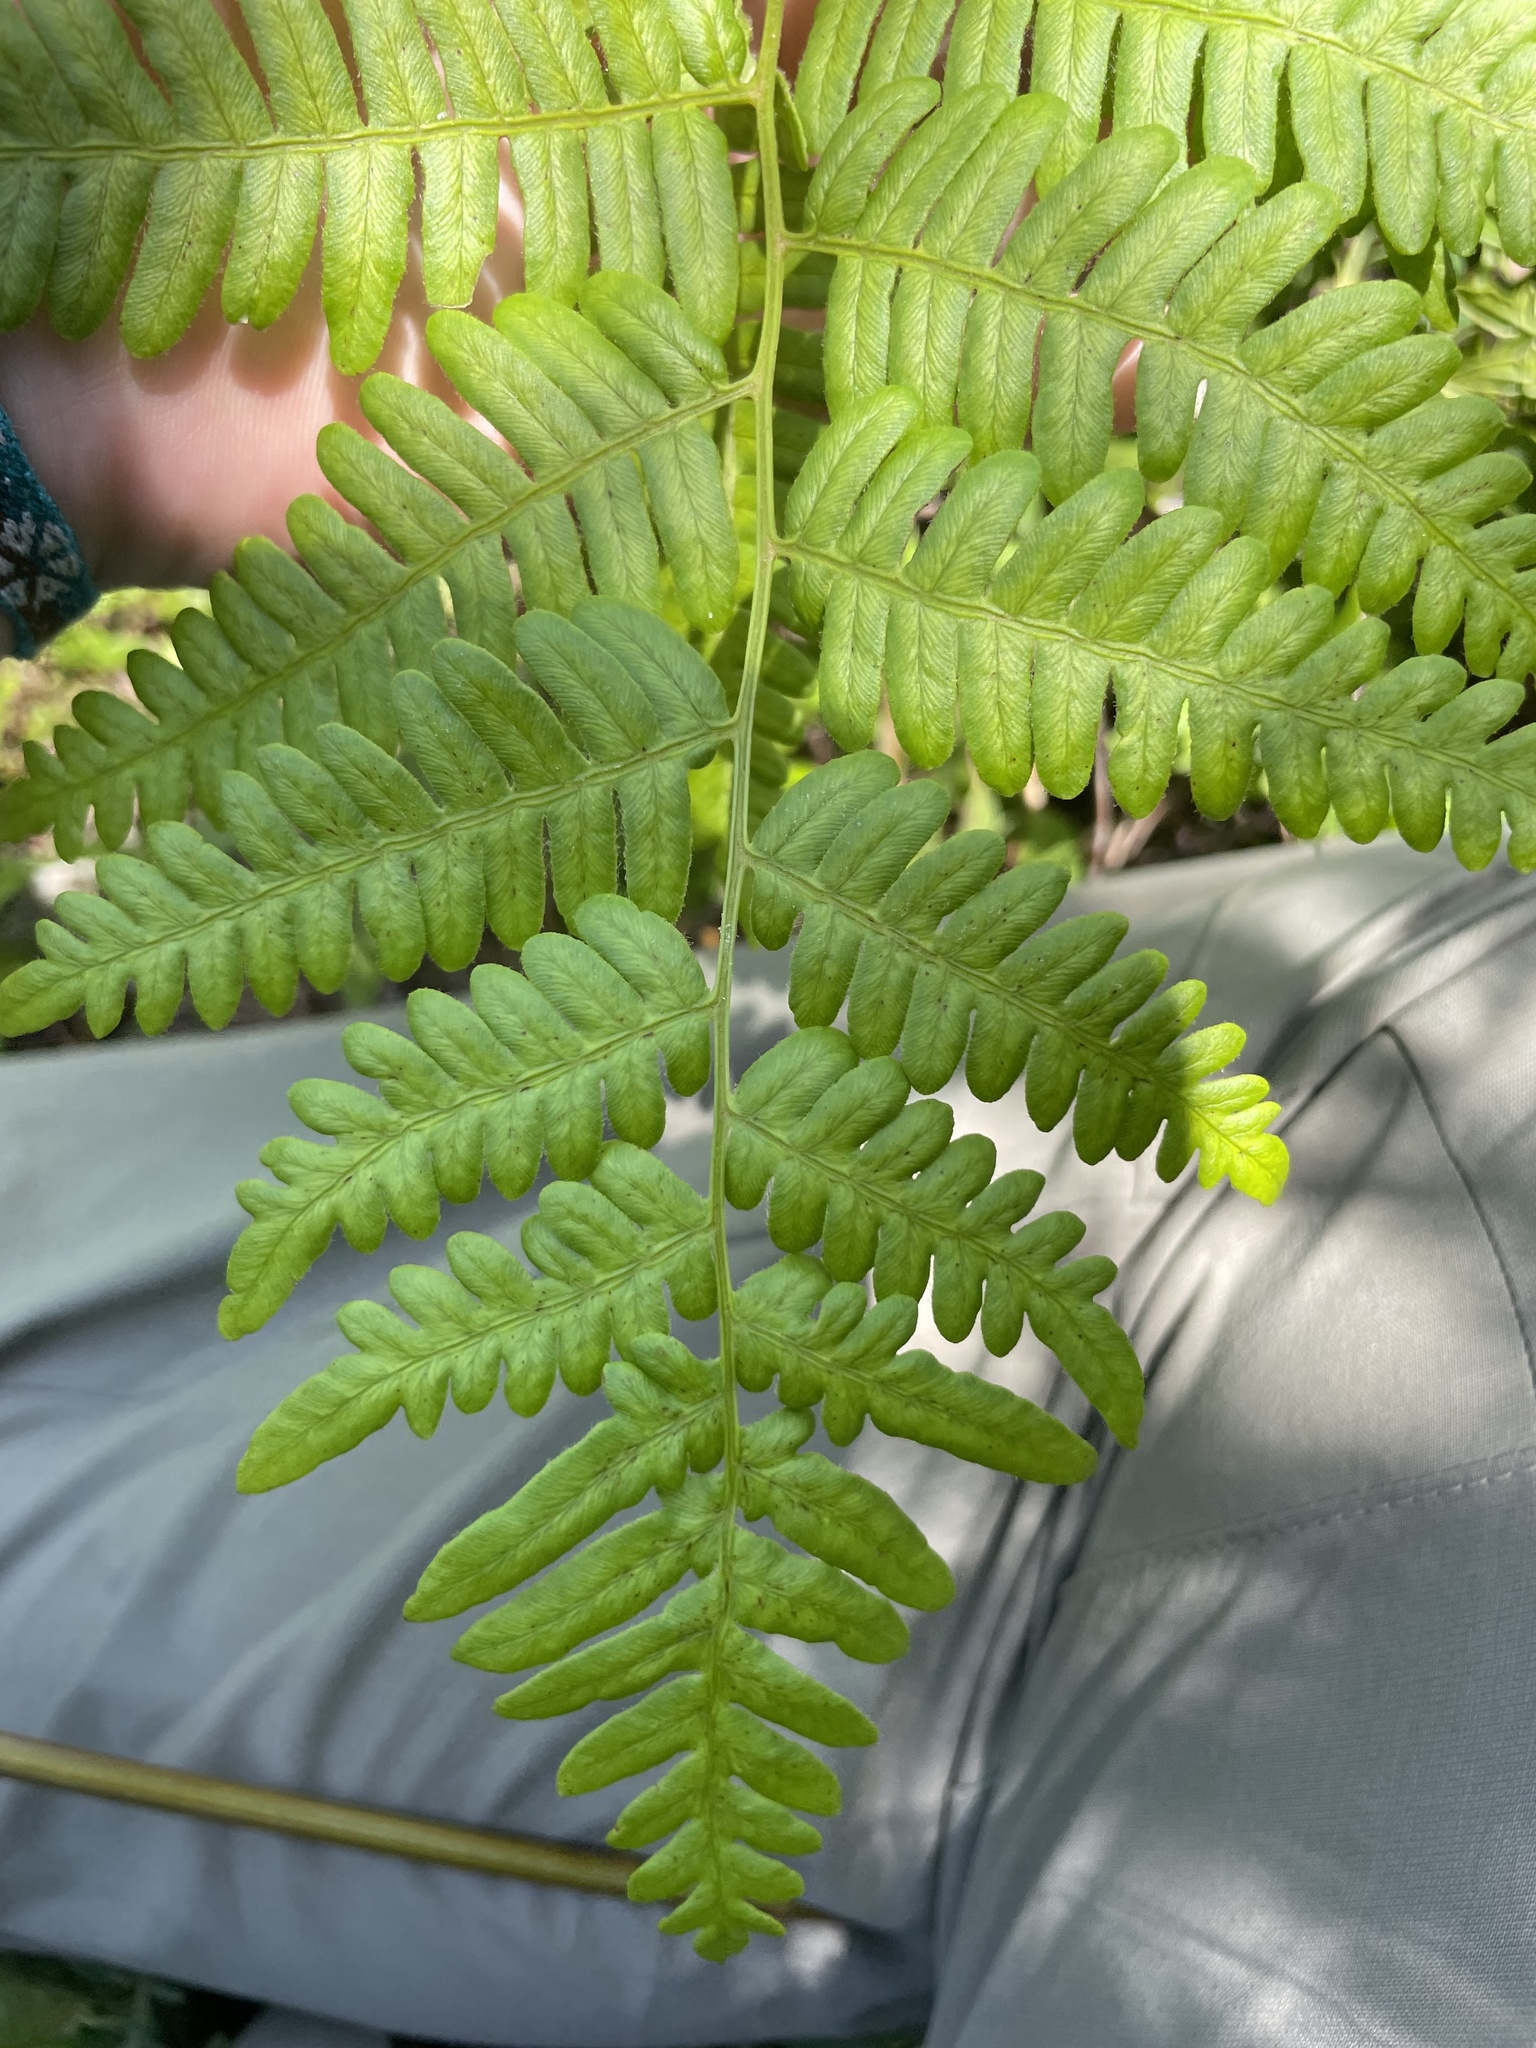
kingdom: Plantae
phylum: Tracheophyta
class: Polypodiopsida
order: Polypodiales
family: Dennstaedtiaceae
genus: Pteridium
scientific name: Pteridium aquilinum
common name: Bracken
